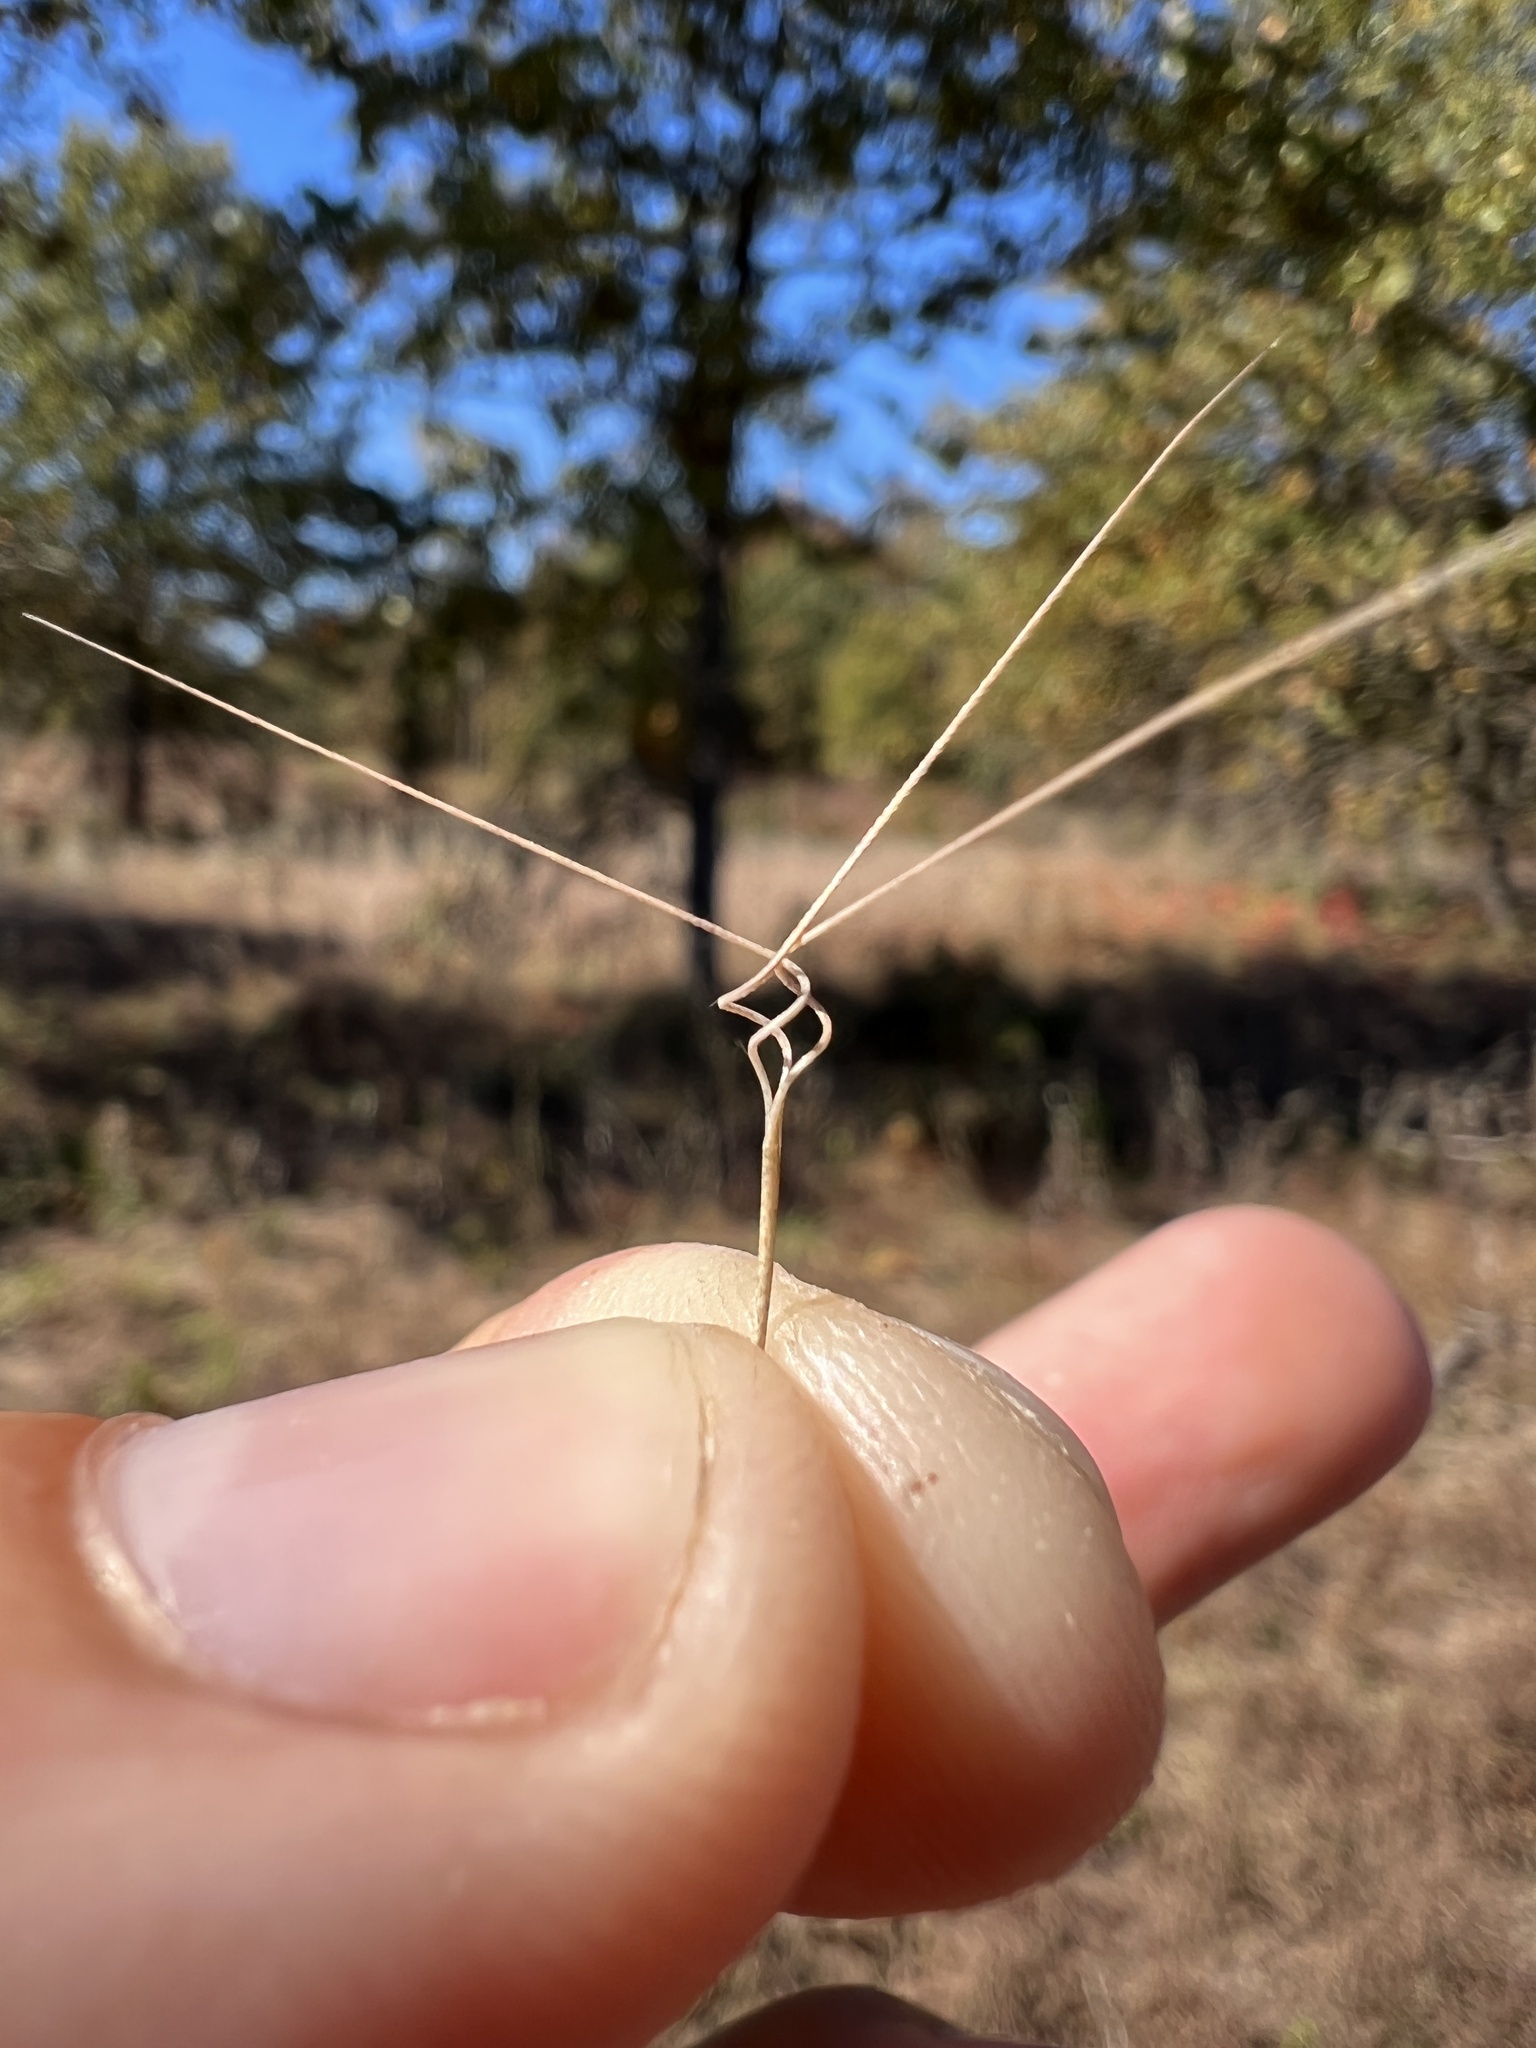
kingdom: Plantae
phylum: Tracheophyta
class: Liliopsida
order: Poales
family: Poaceae
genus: Aristida
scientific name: Aristida basiramea
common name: Forked three-awned grass
